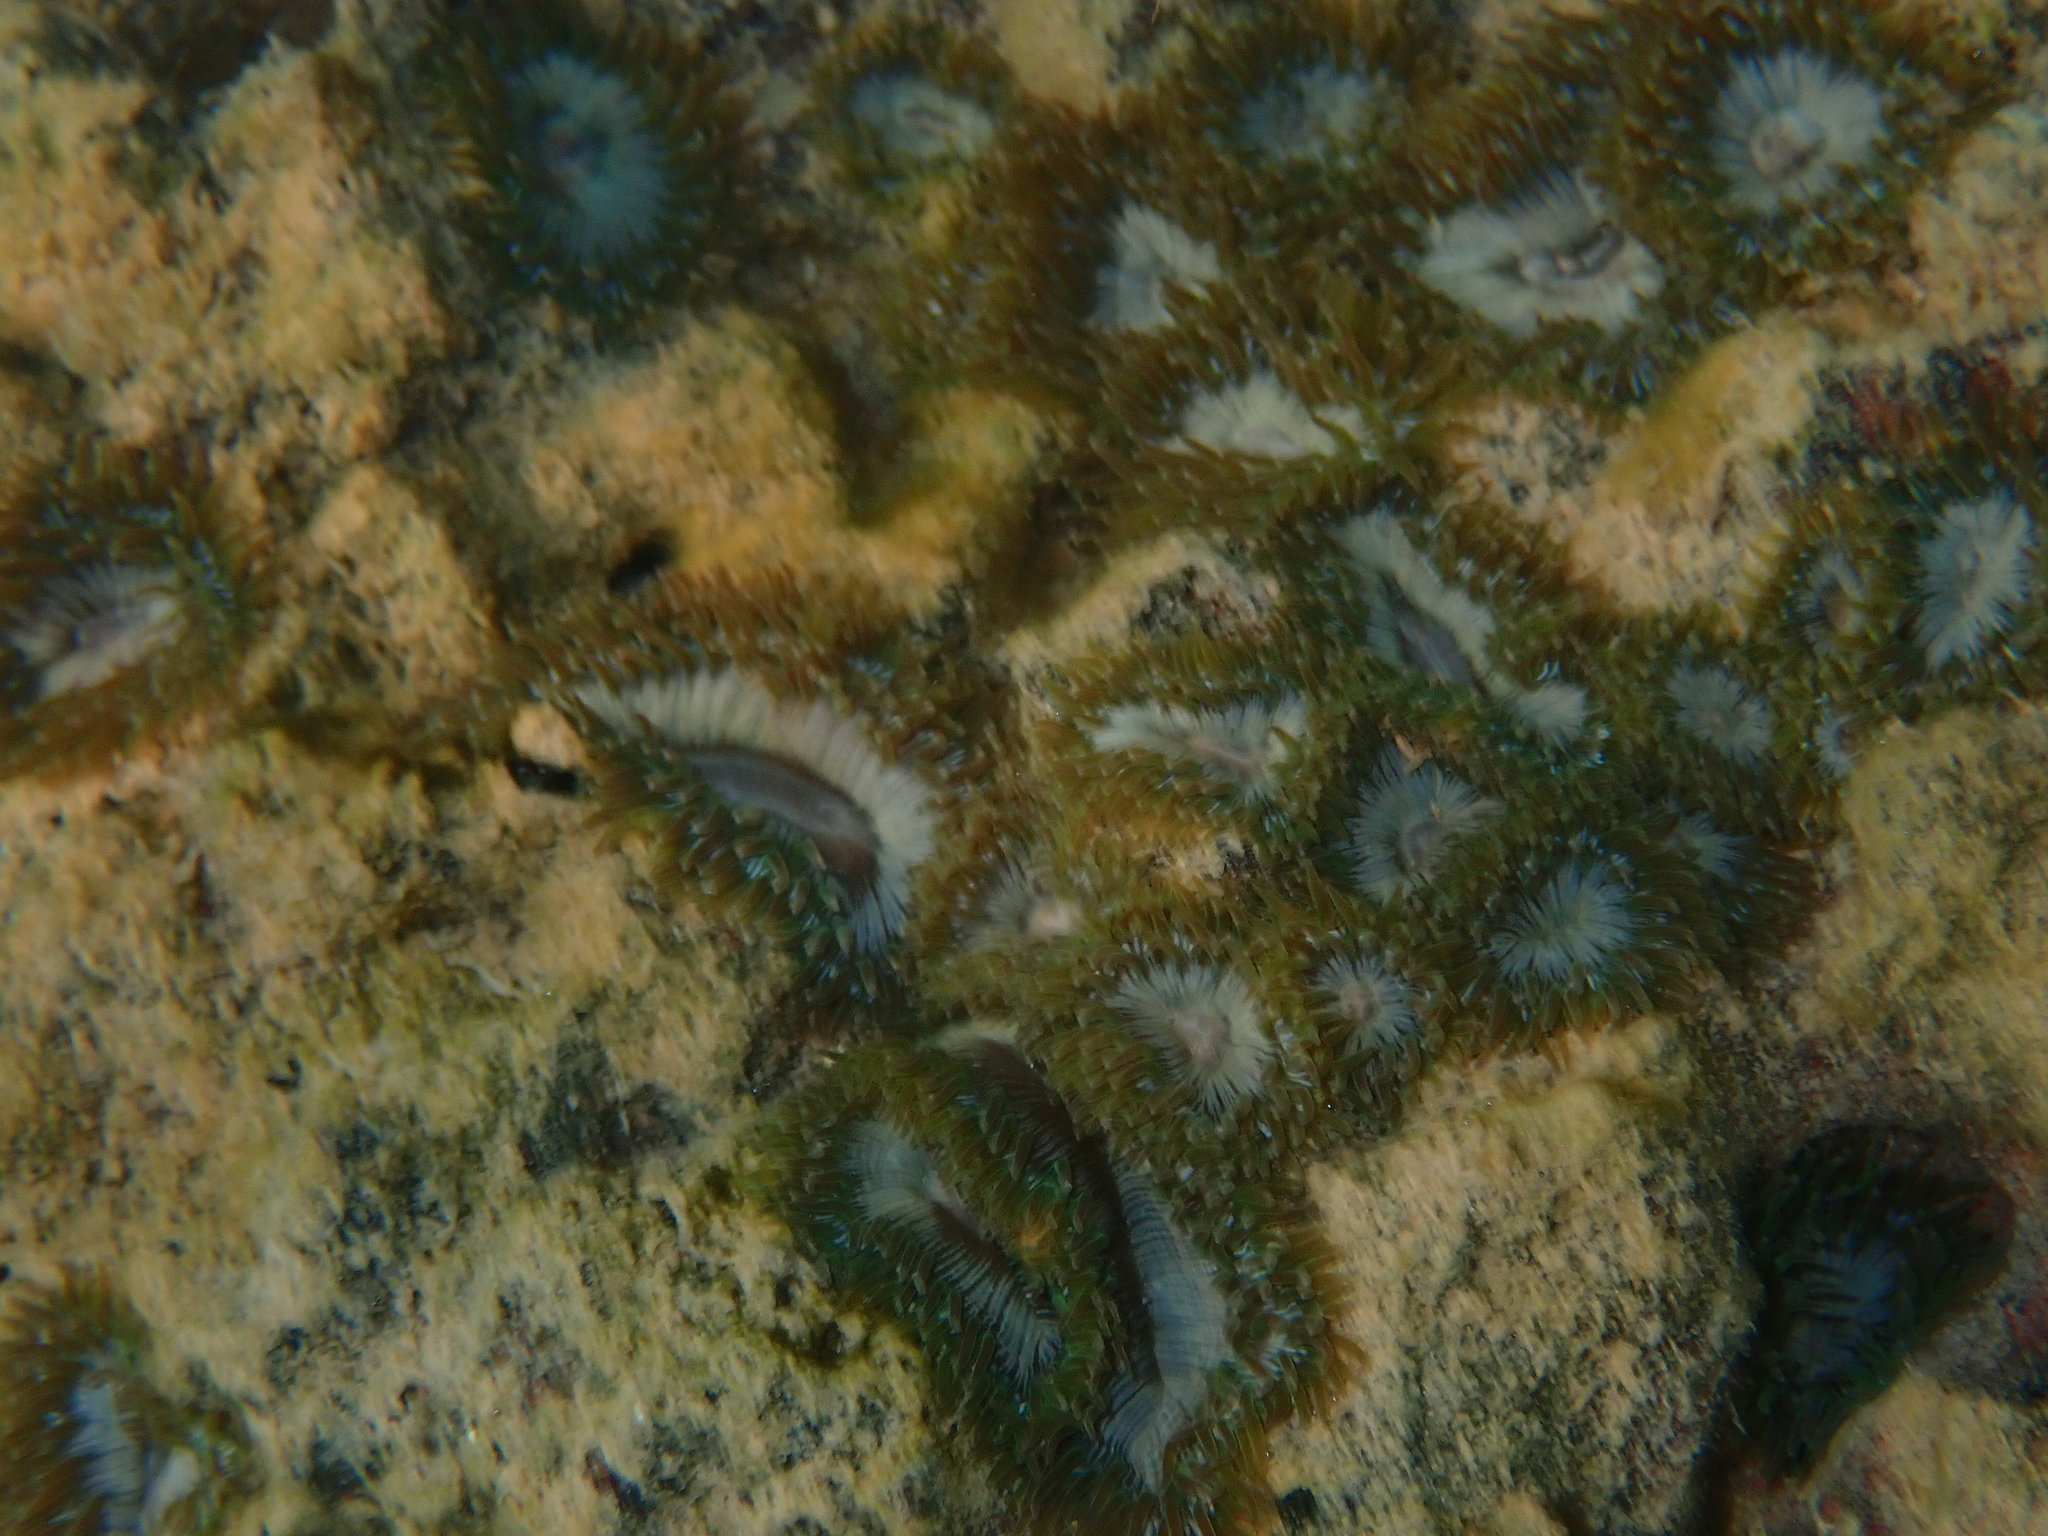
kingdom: Animalia
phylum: Cnidaria
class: Anthozoa
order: Actiniaria
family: Actiniidae
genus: Gyractis
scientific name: Gyractis sesere
